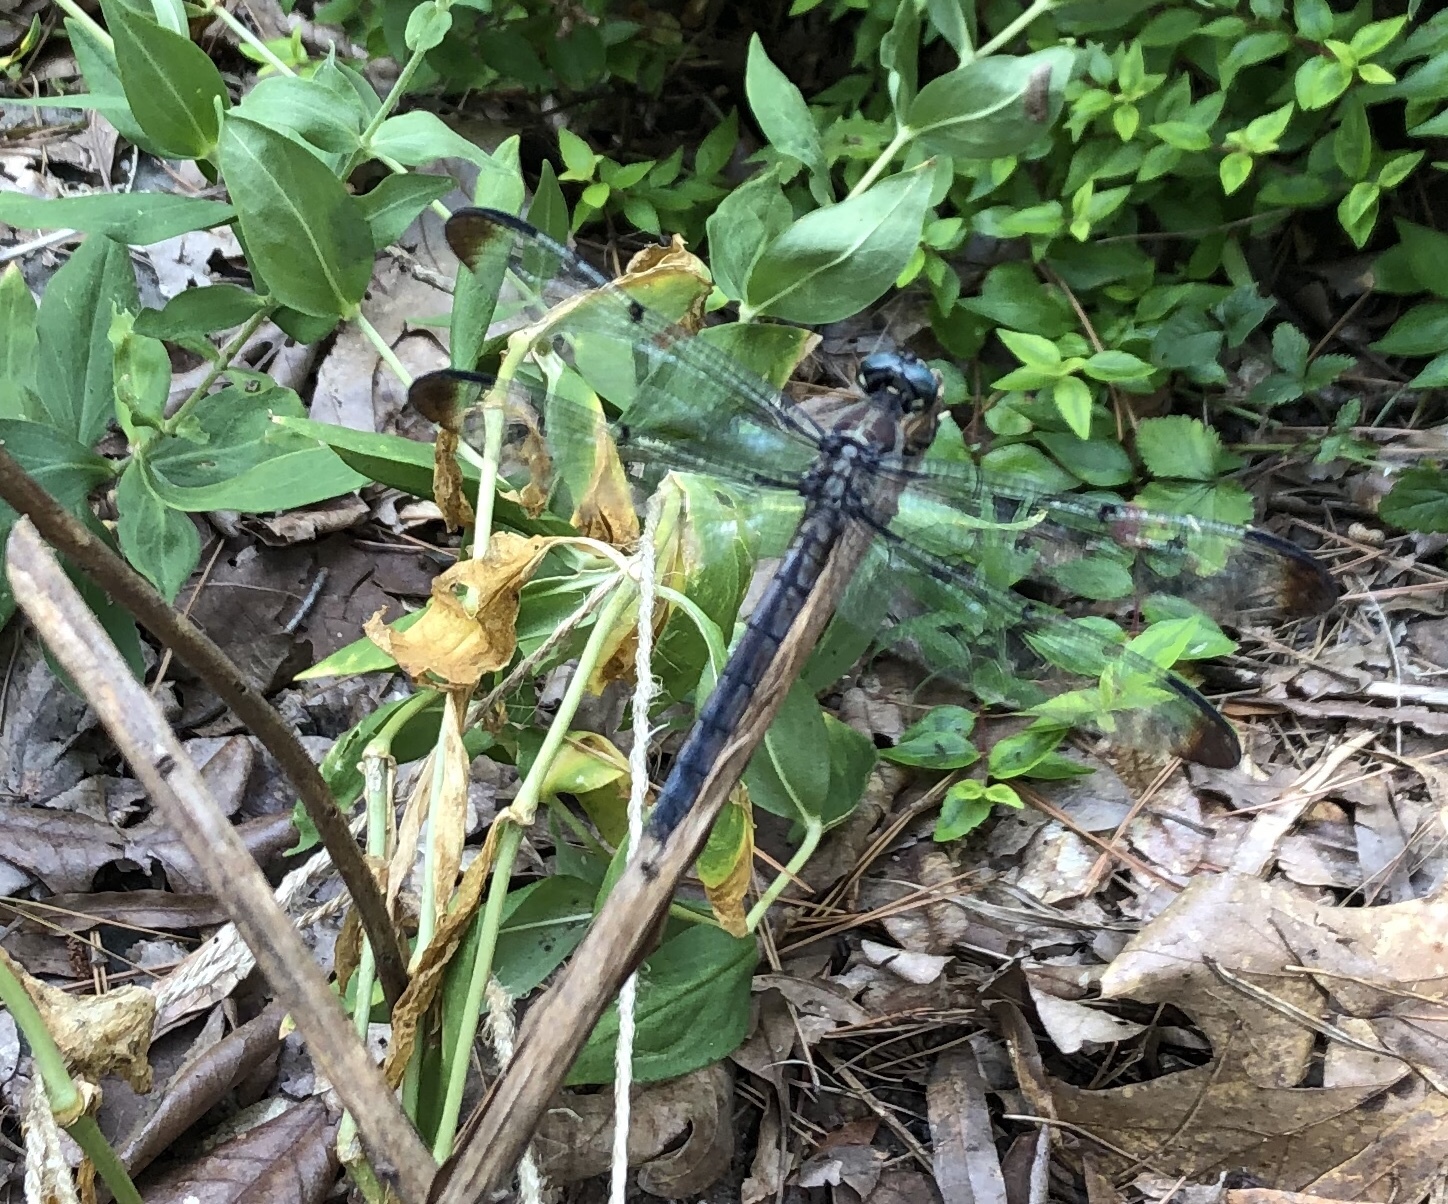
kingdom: Animalia
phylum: Arthropoda
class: Insecta
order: Odonata
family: Libellulidae
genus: Libellula
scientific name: Libellula vibrans
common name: Great blue skimmer
